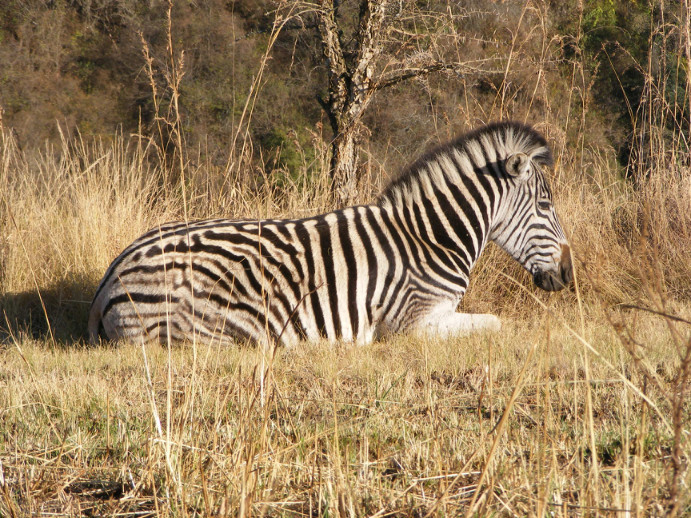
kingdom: Animalia
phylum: Chordata
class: Mammalia
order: Perissodactyla
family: Equidae
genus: Equus
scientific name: Equus quagga
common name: Plains zebra
